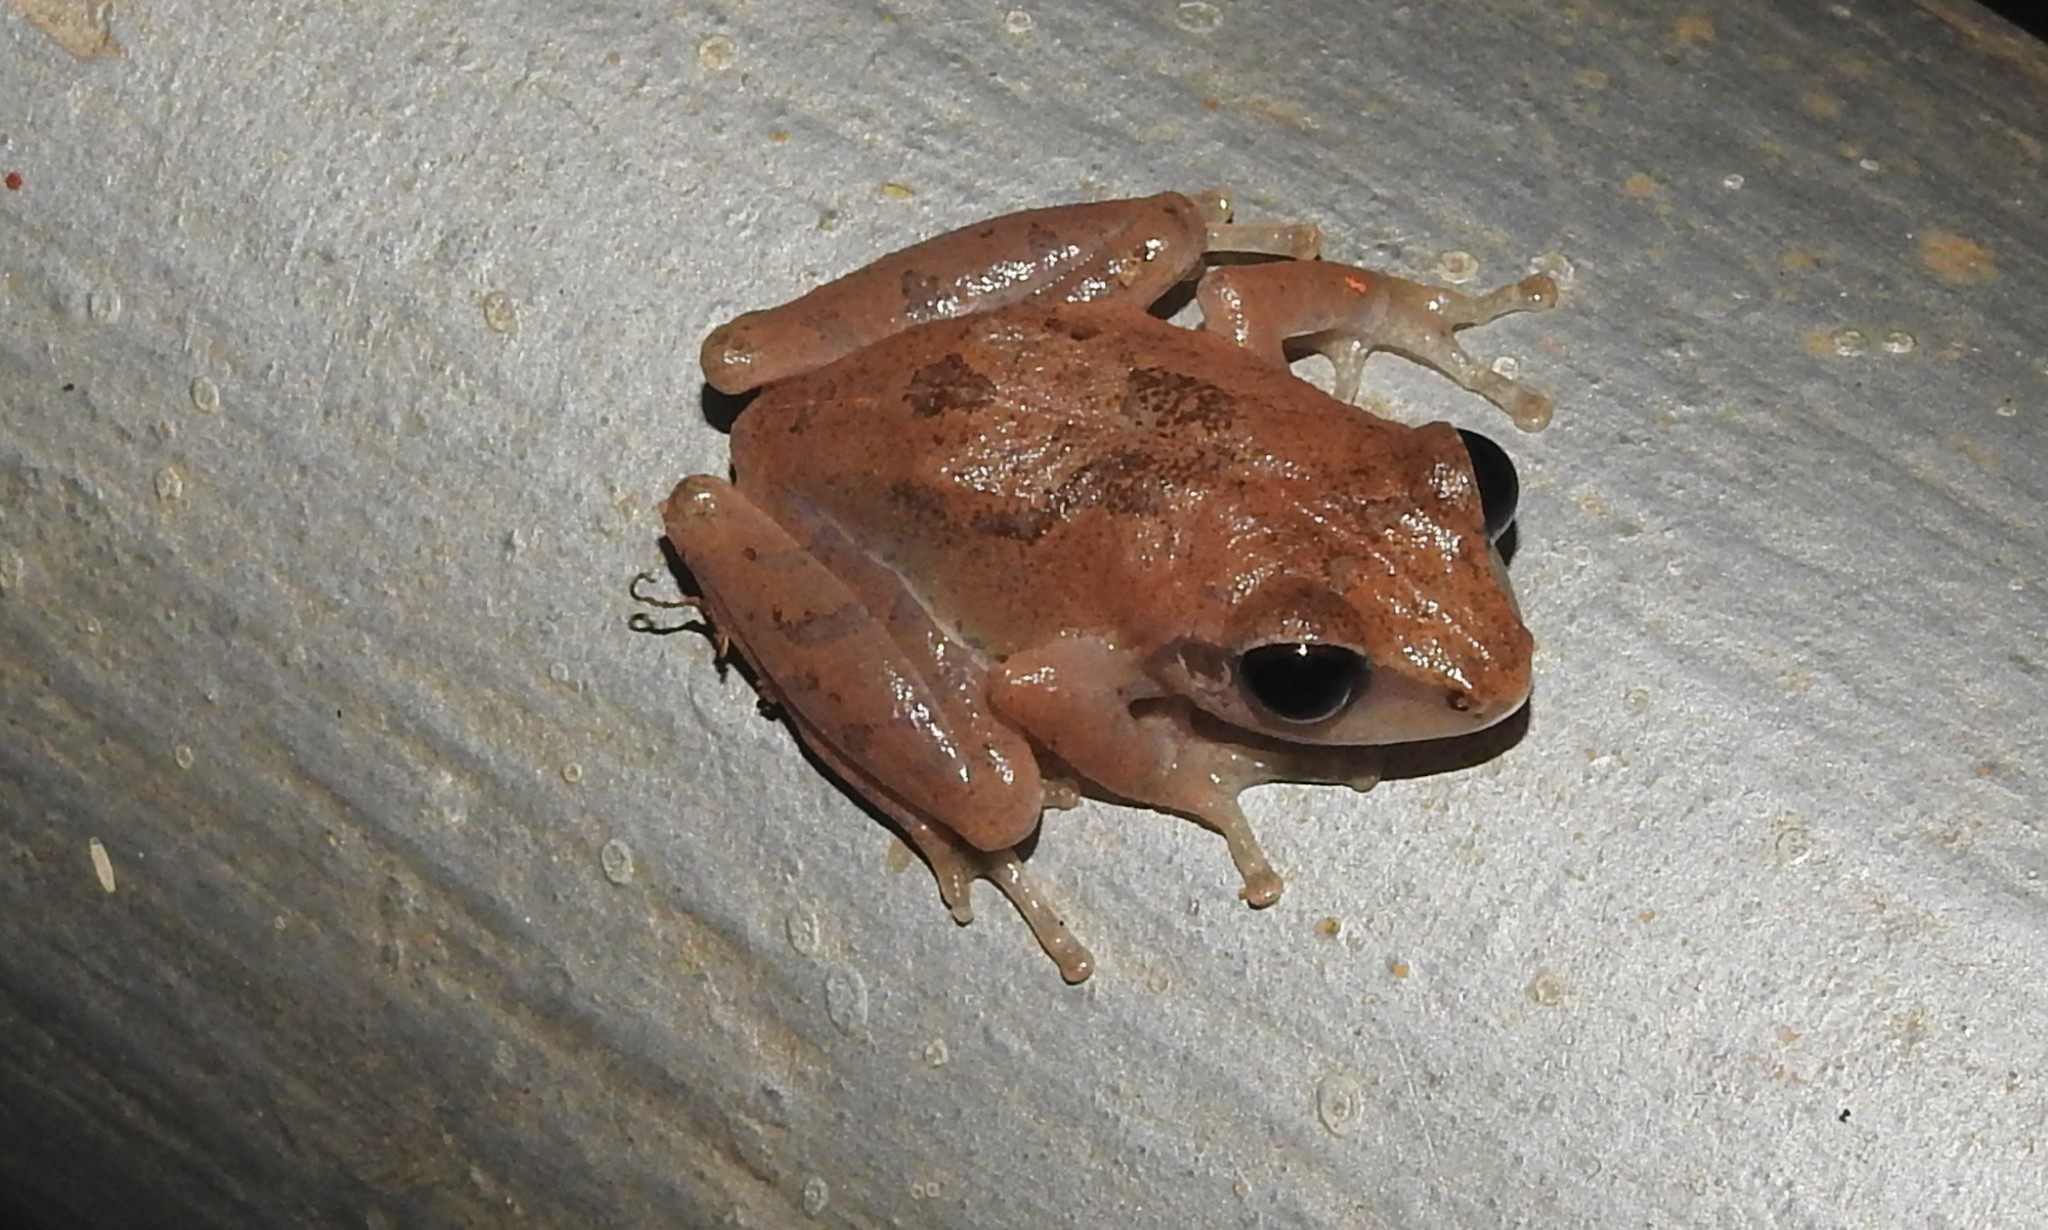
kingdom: Animalia
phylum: Chordata
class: Amphibia
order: Anura
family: Rhacophoridae
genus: Pseudophilautus
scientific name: Pseudophilautus wynaadensis
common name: Dark-eared bush frog
